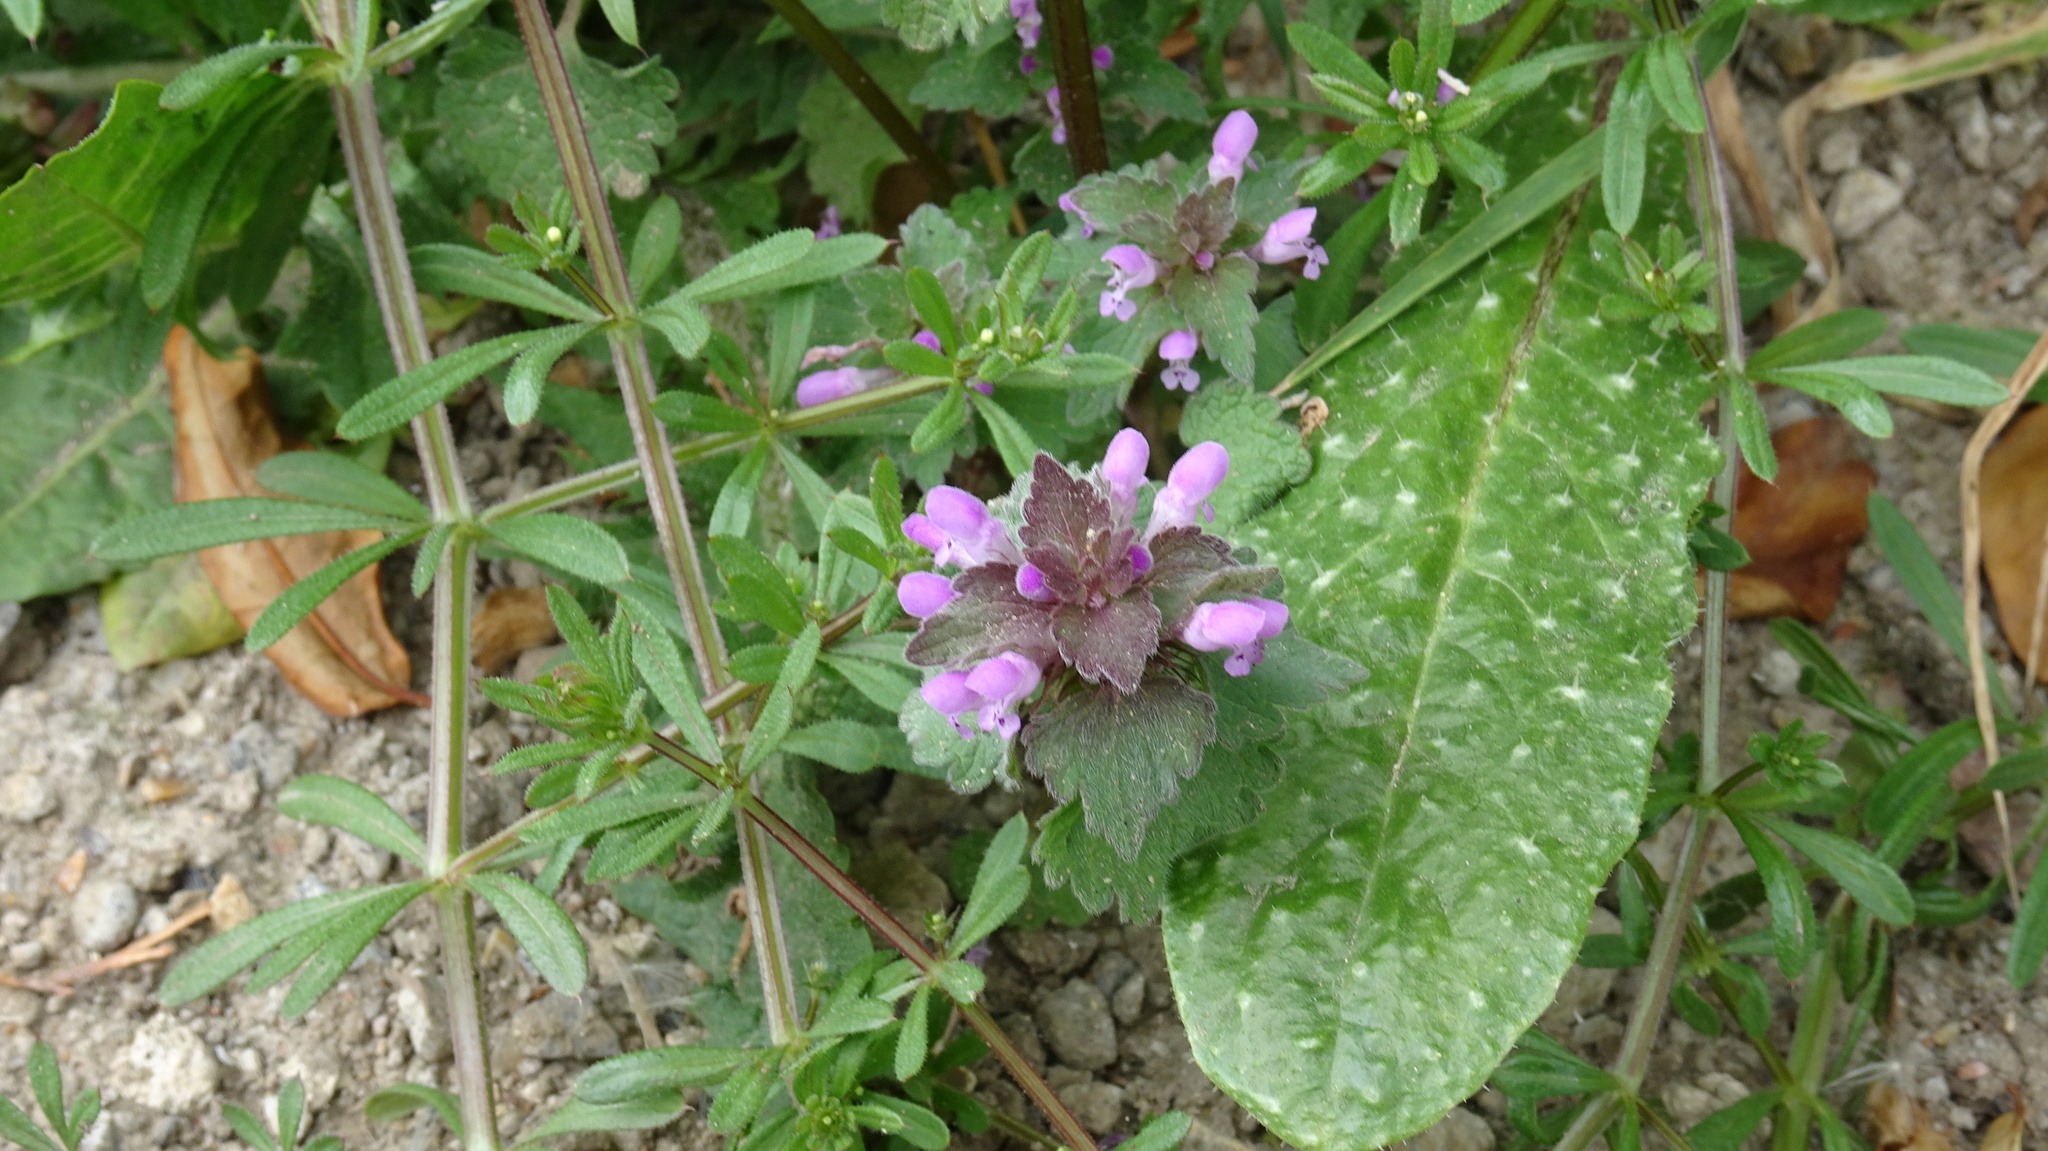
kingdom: Plantae
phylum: Tracheophyta
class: Magnoliopsida
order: Lamiales
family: Lamiaceae
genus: Lamium
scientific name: Lamium purpureum
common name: Red dead-nettle
